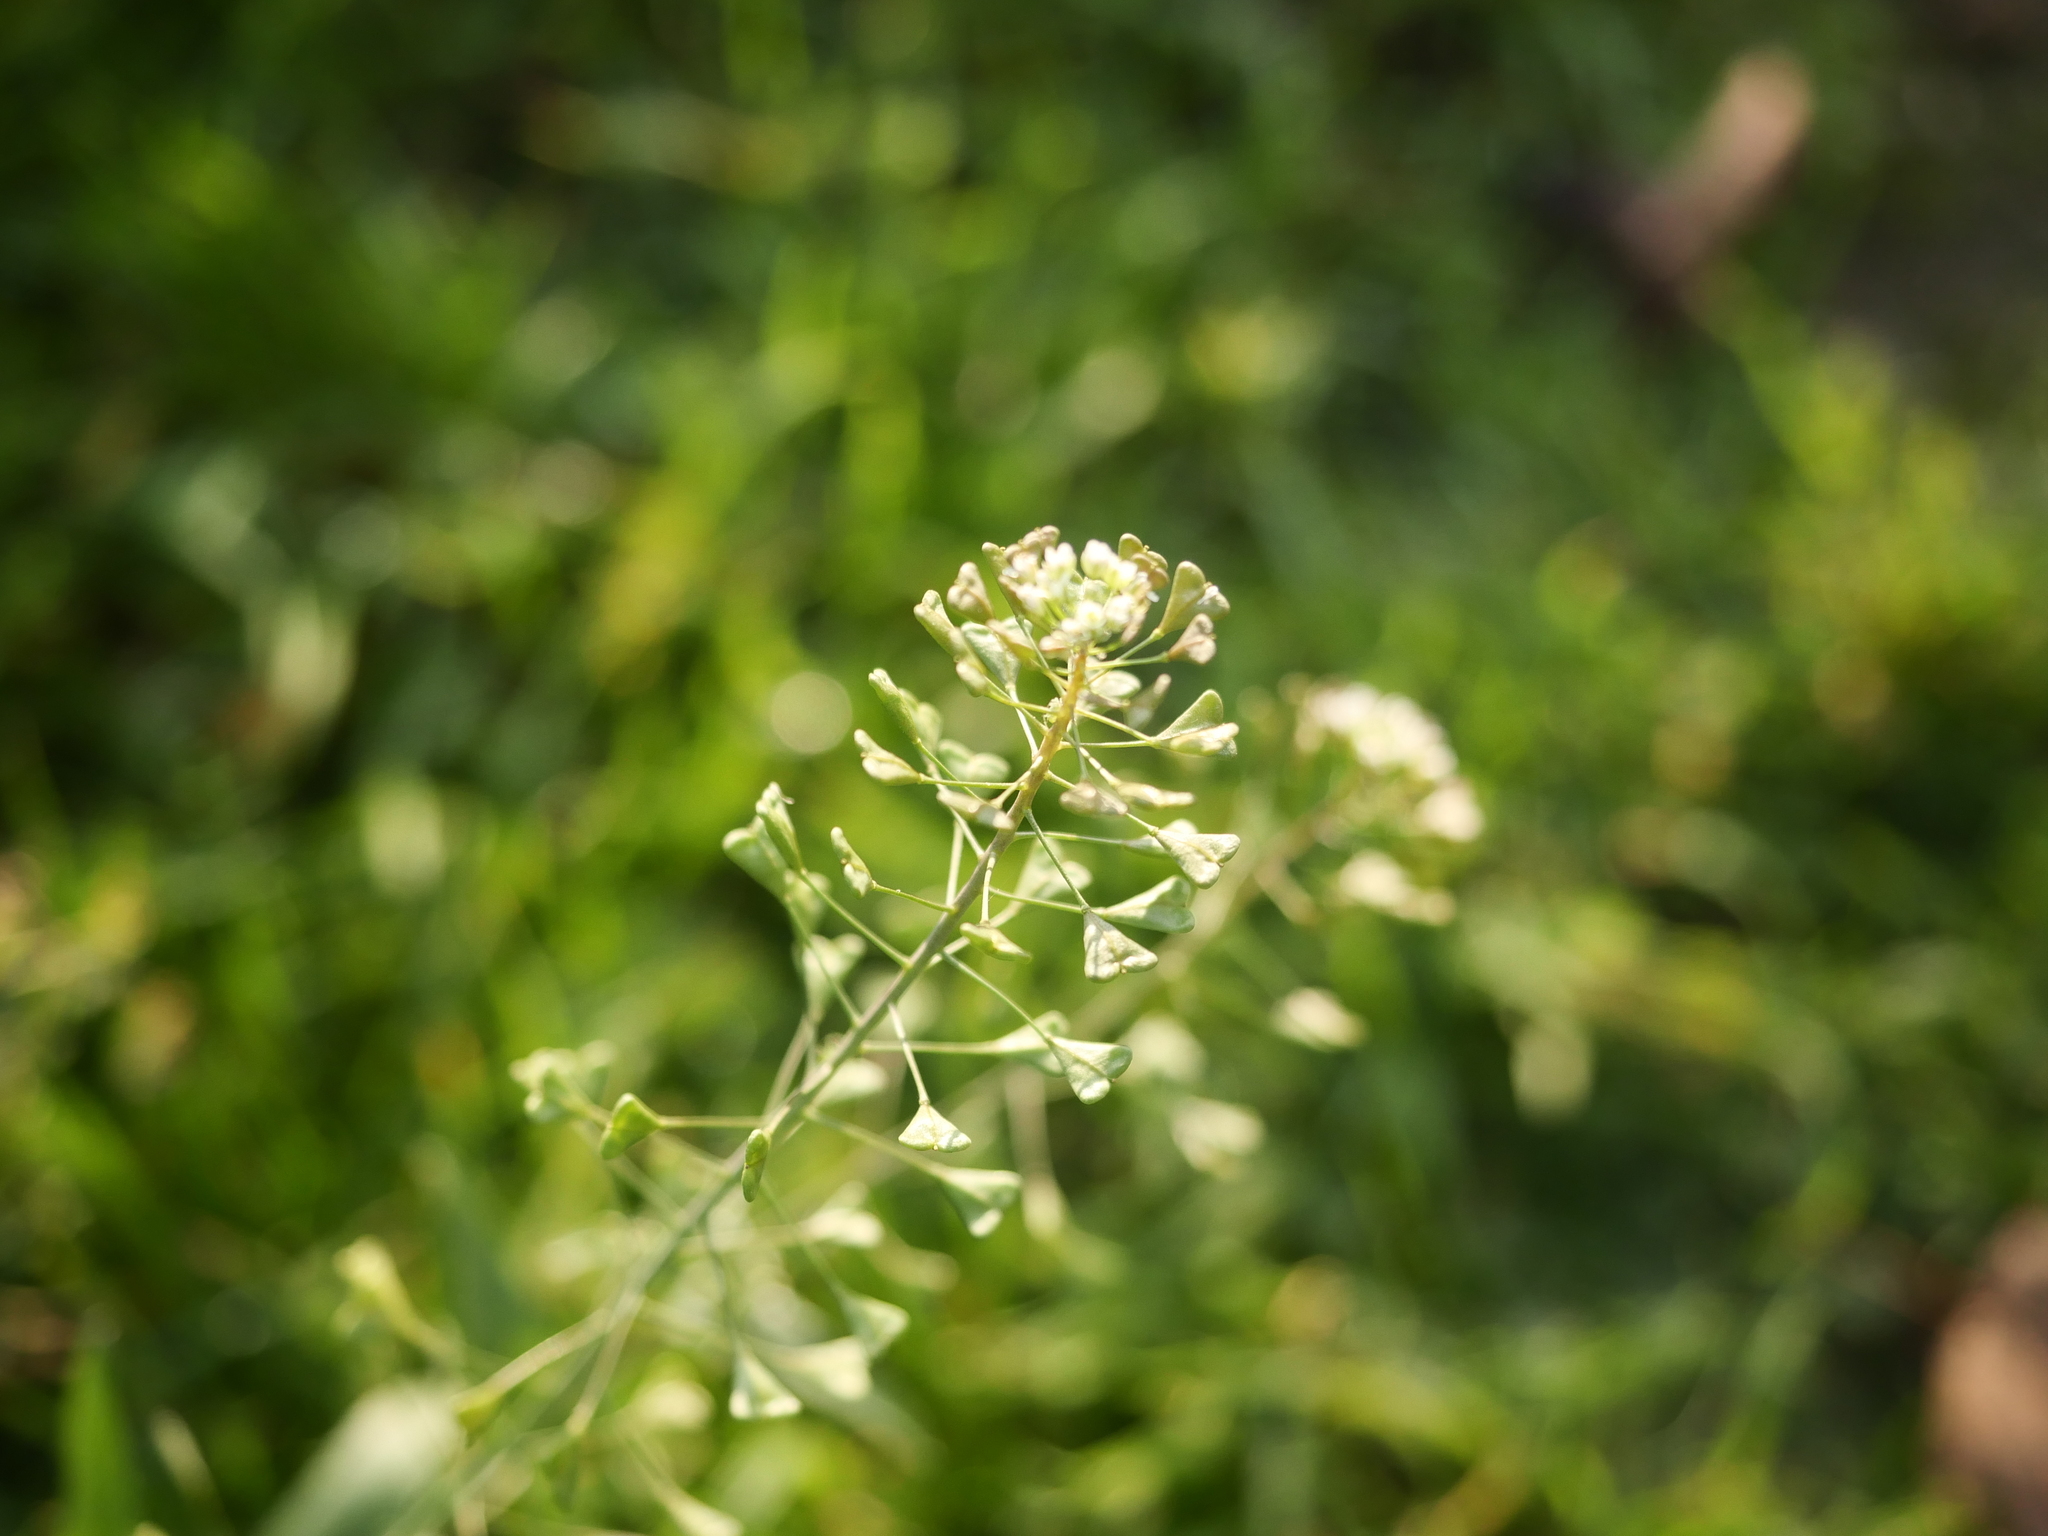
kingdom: Plantae
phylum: Tracheophyta
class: Magnoliopsida
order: Brassicales
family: Brassicaceae
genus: Capsella
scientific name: Capsella bursa-pastoris
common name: Shepherd's purse
